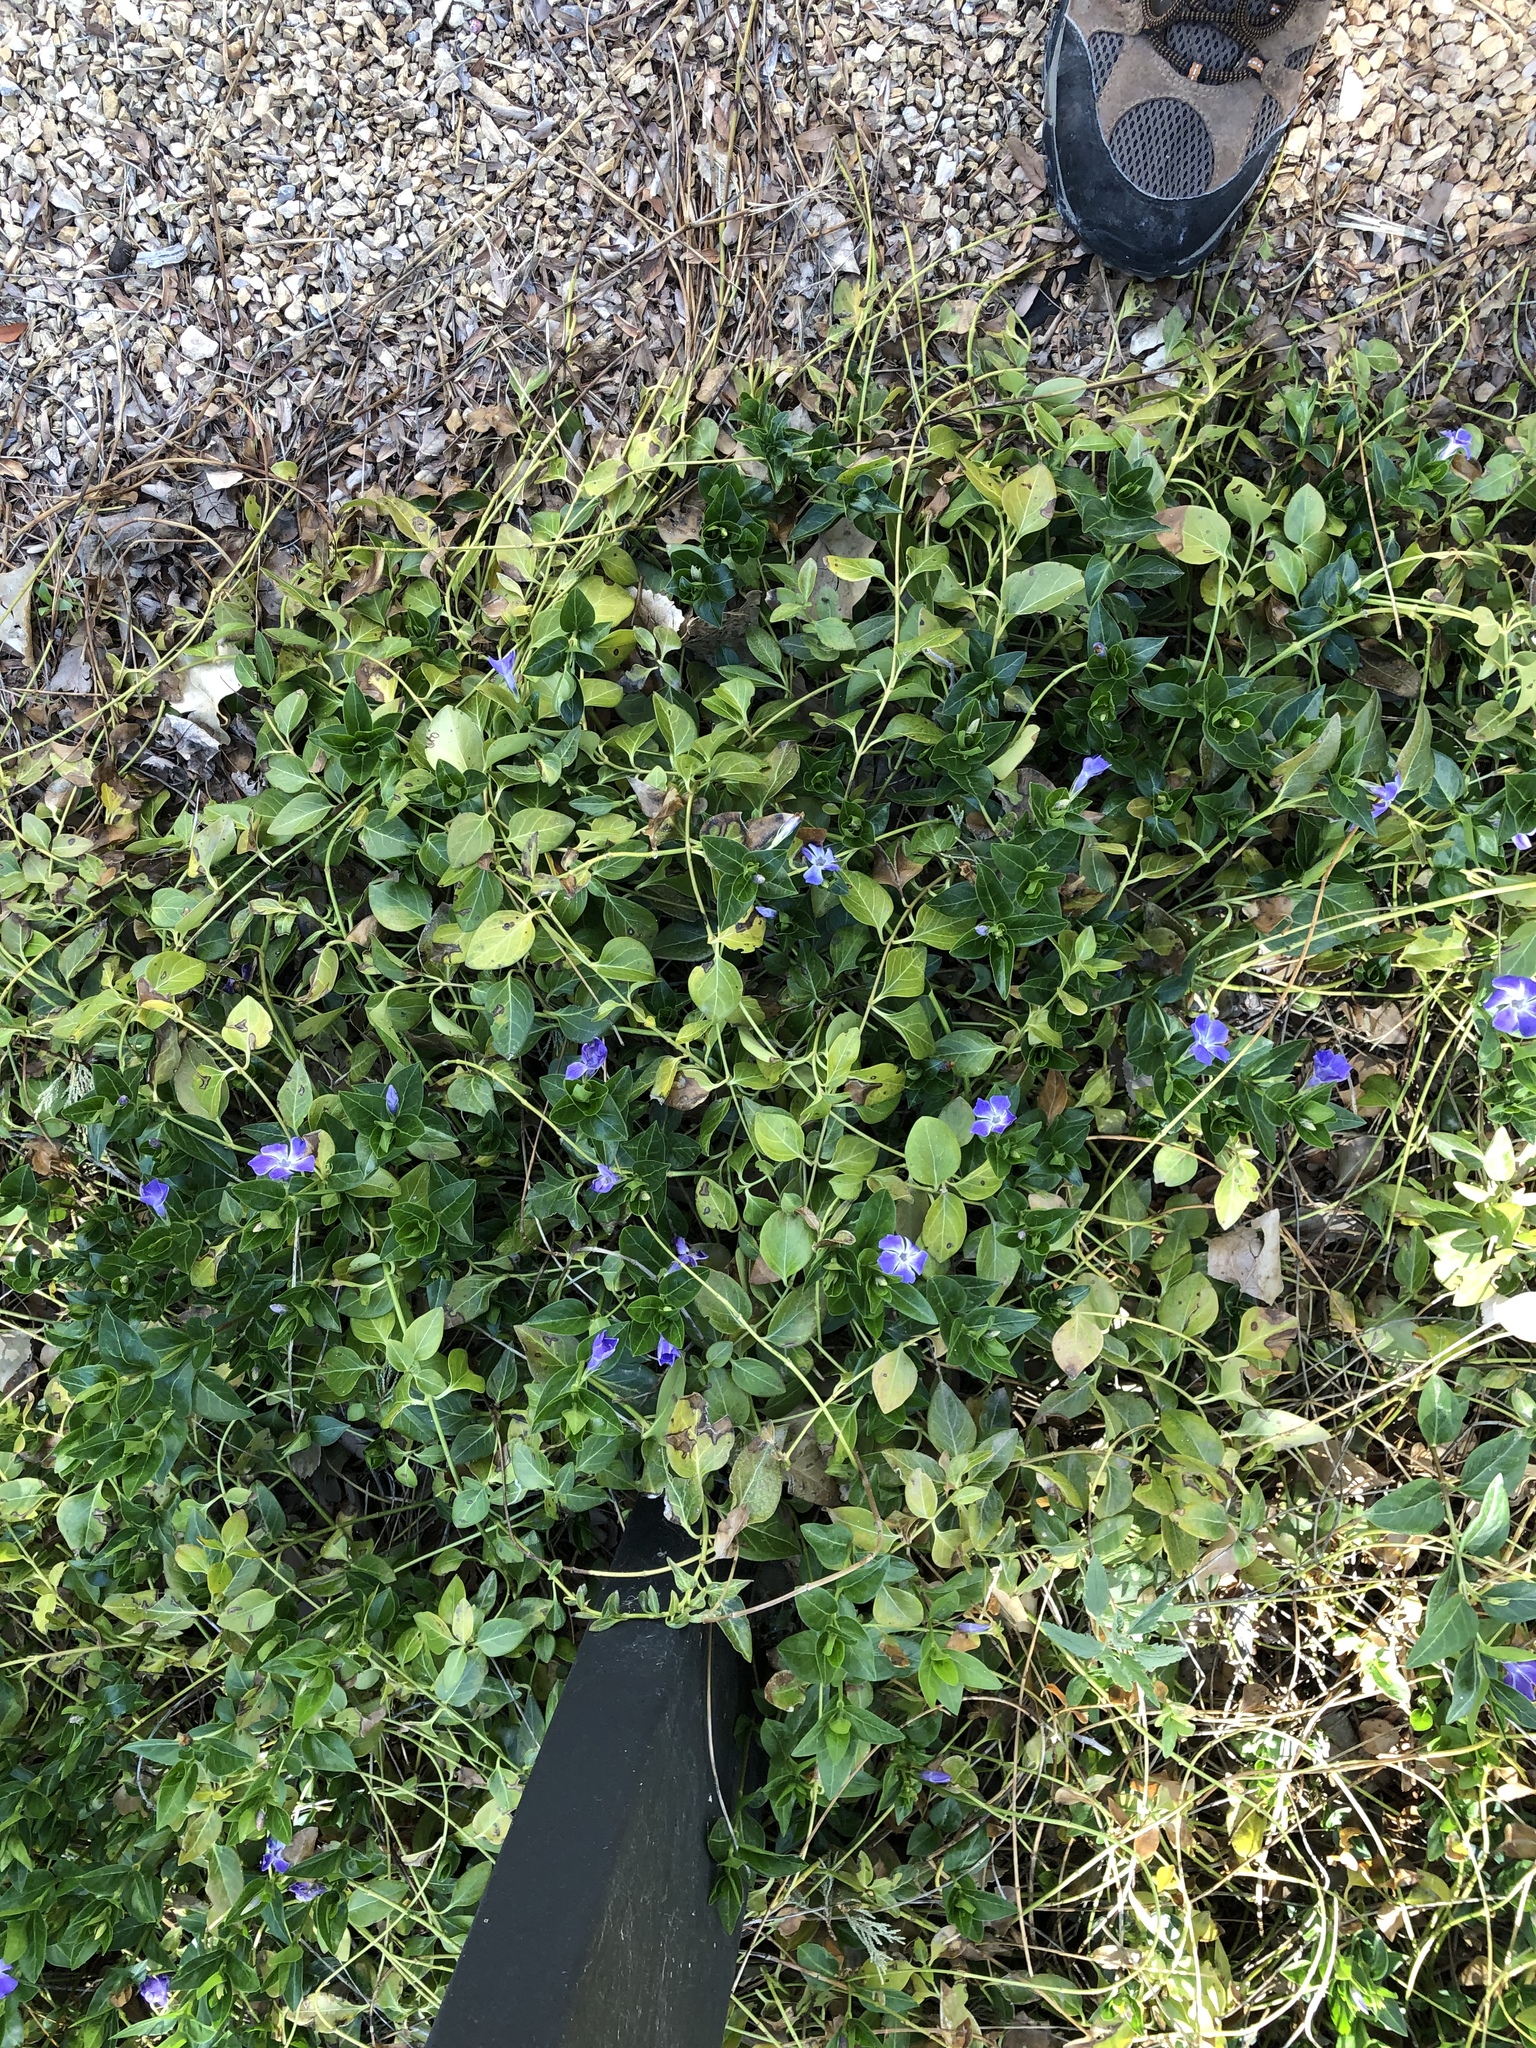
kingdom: Plantae
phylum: Tracheophyta
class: Magnoliopsida
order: Gentianales
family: Apocynaceae
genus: Vinca
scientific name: Vinca major
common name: Greater periwinkle
